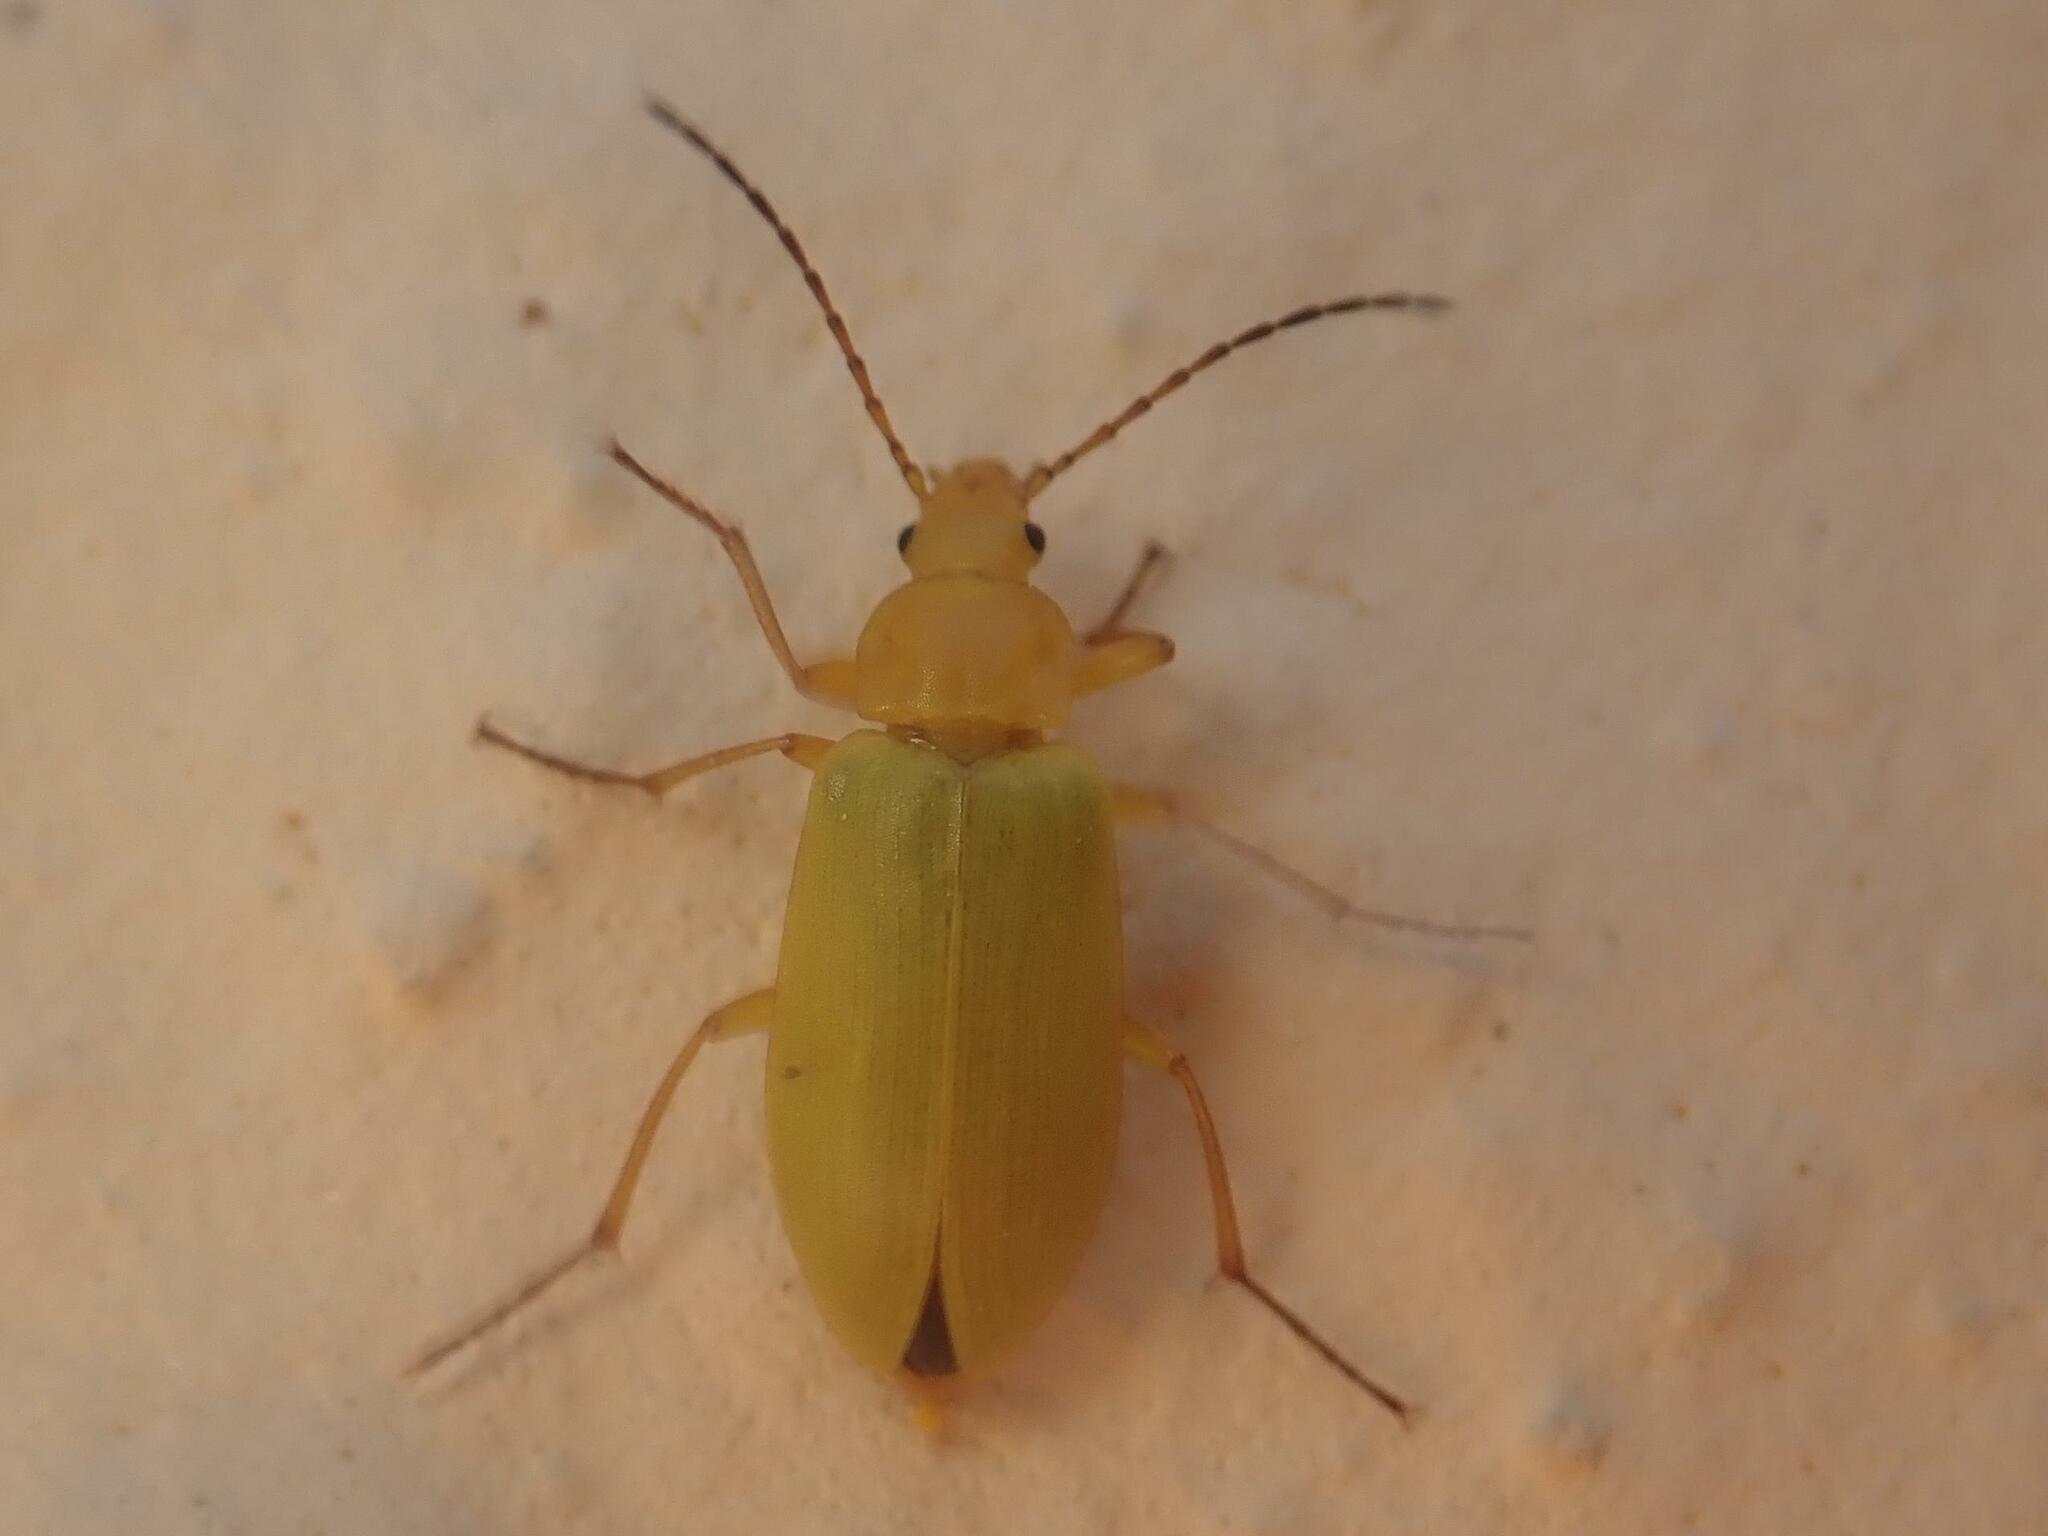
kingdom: Animalia
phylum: Arthropoda
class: Insecta
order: Coleoptera
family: Tenebrionidae
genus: Cteniopus
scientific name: Cteniopus sulphureus
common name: Sulphur beetle
